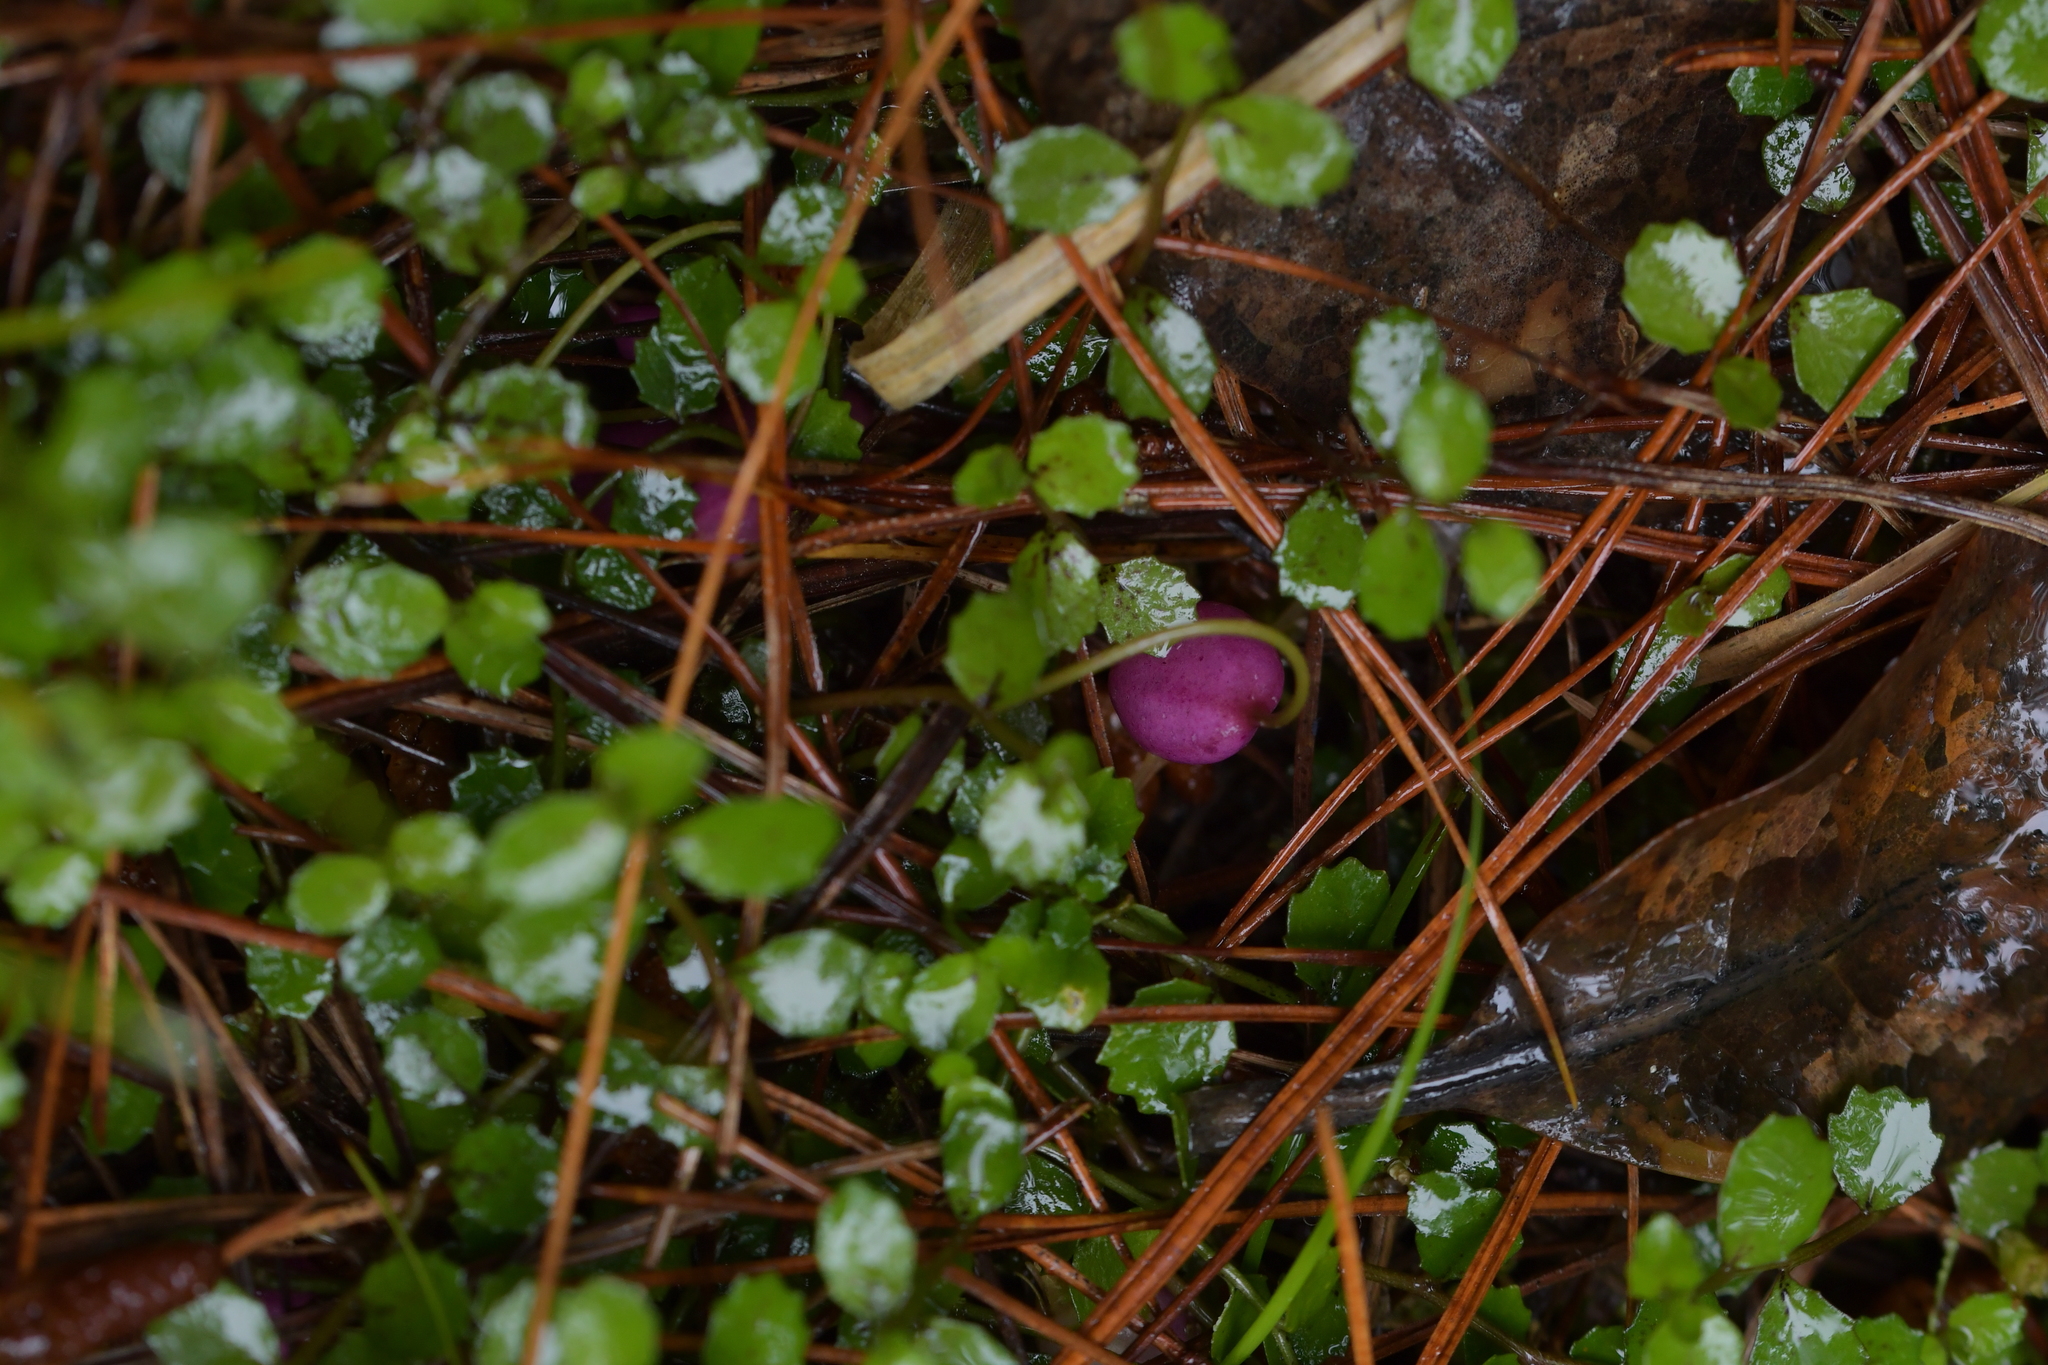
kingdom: Plantae
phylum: Tracheophyta
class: Magnoliopsida
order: Asterales
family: Campanulaceae
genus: Lobelia
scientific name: Lobelia angulata
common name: Lawn lobelia
